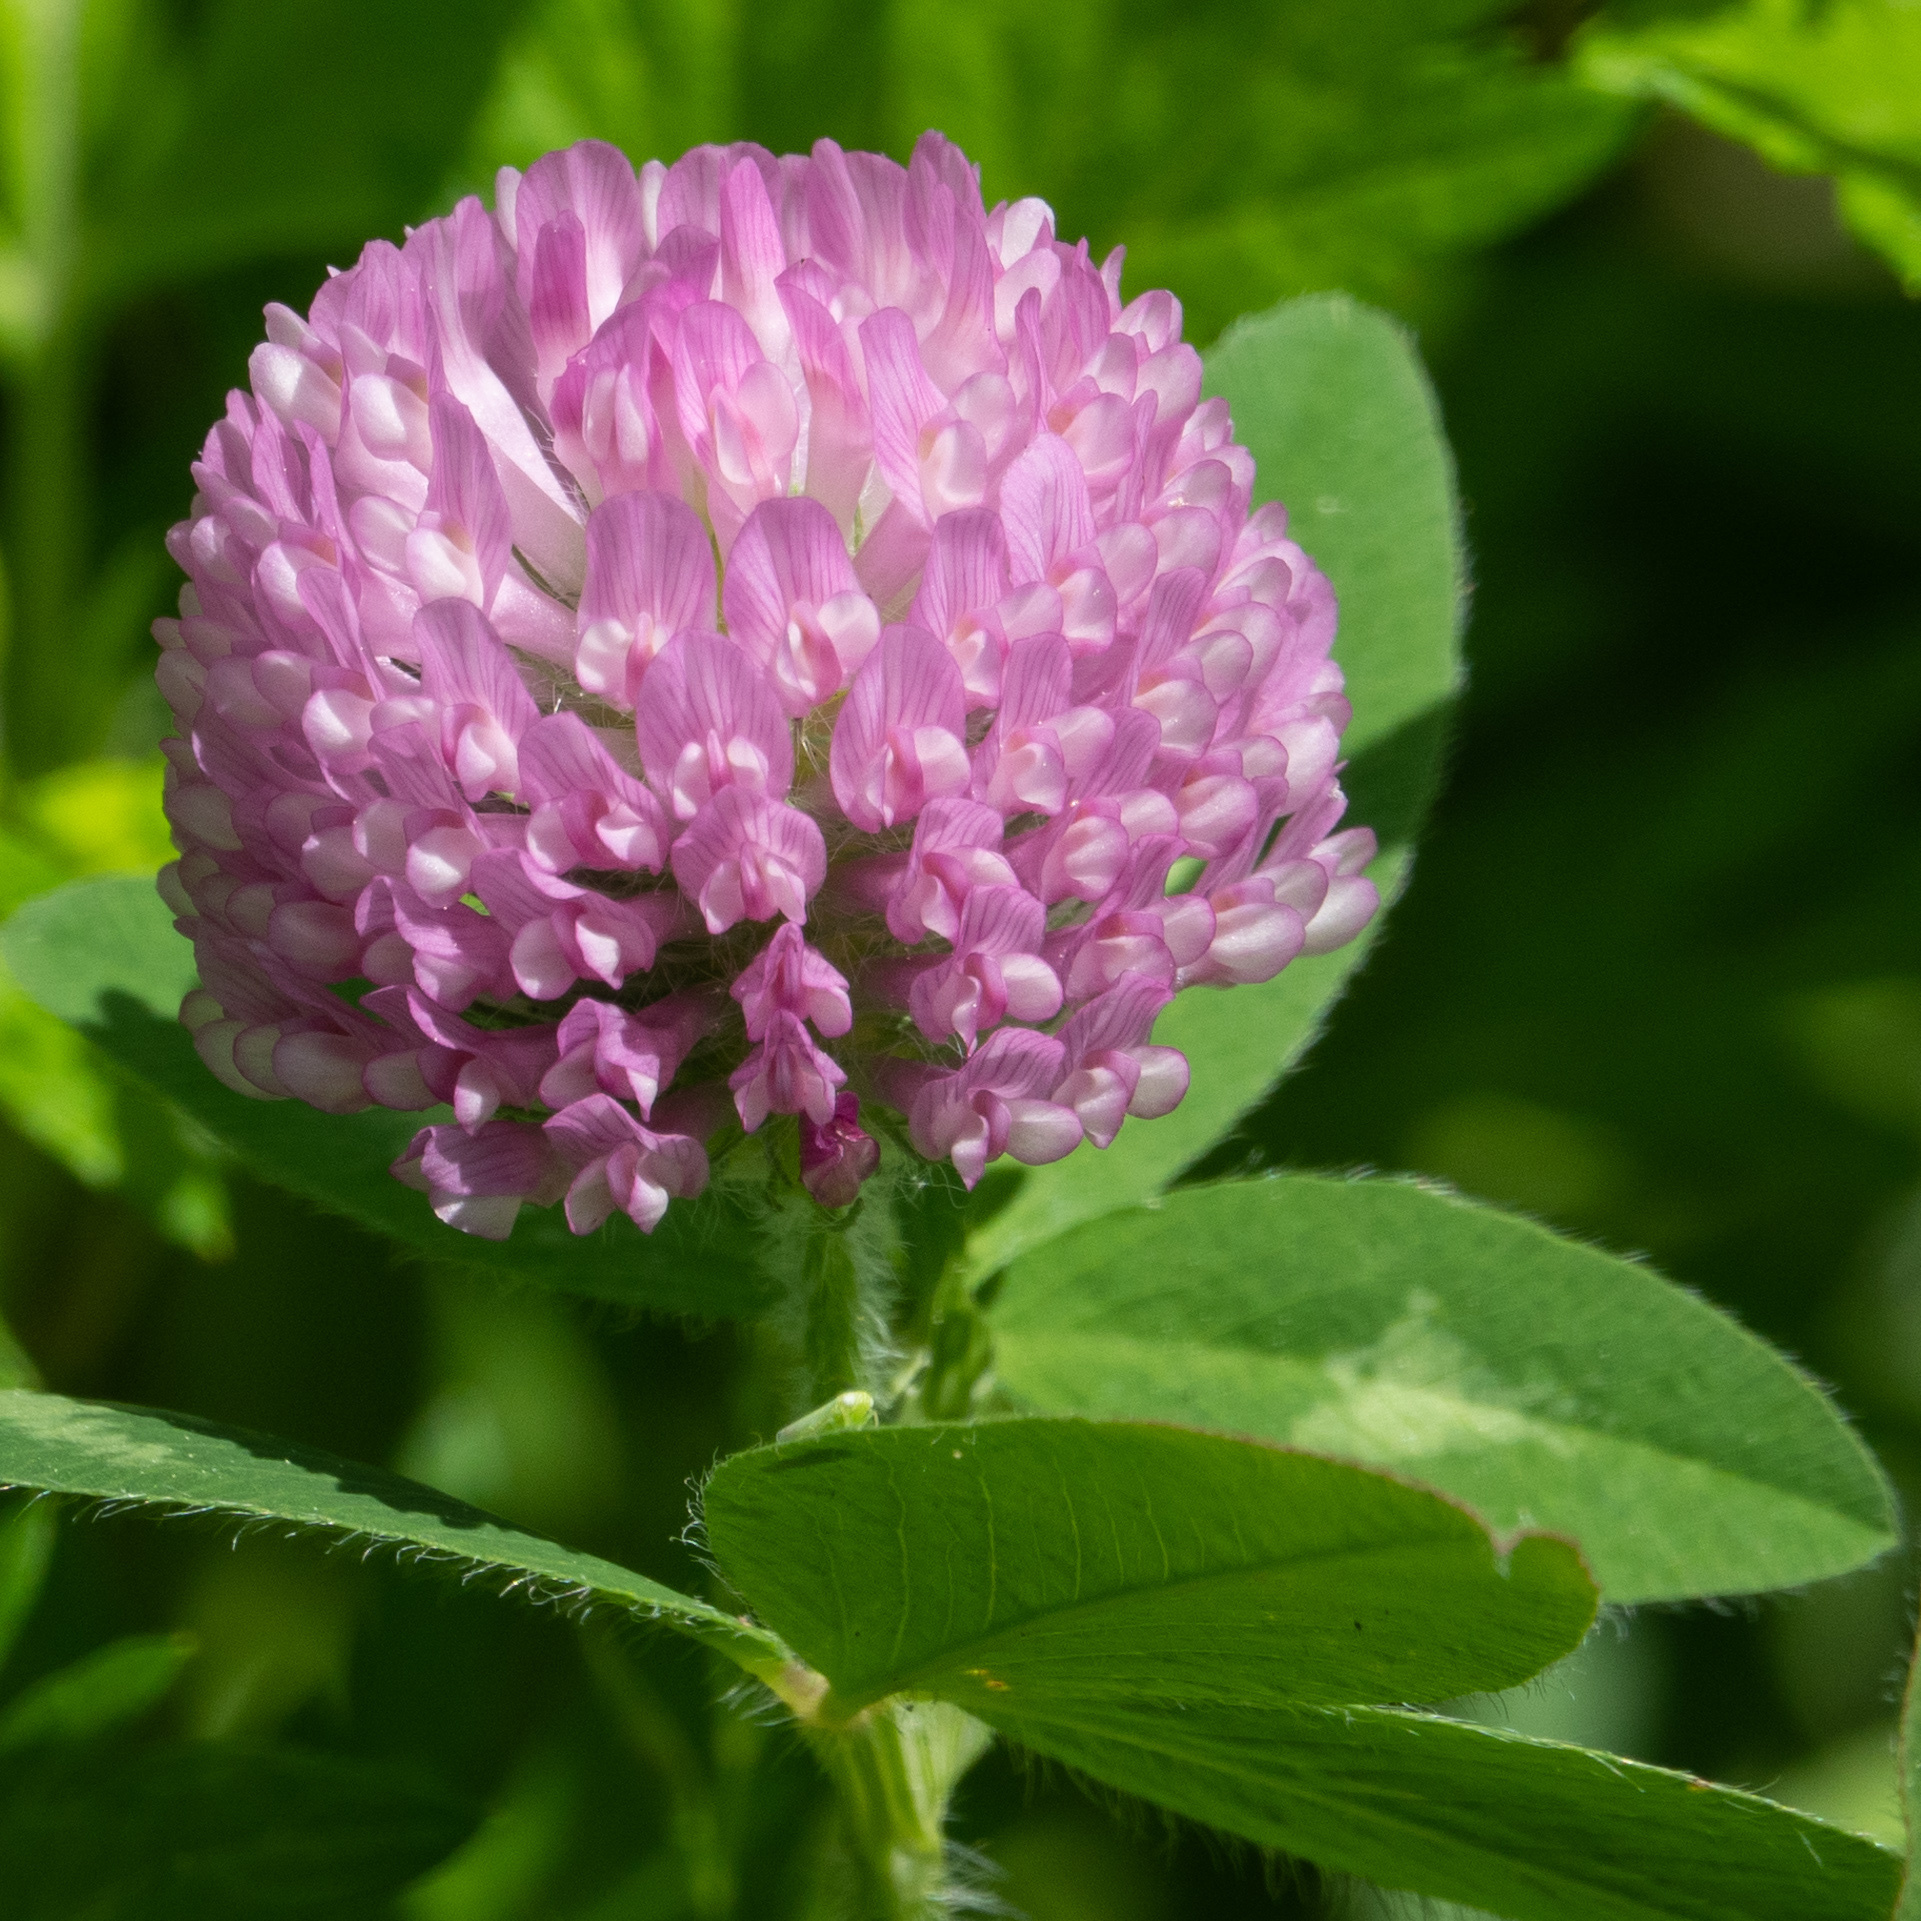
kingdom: Plantae
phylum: Tracheophyta
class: Magnoliopsida
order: Fabales
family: Fabaceae
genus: Trifolium
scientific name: Trifolium pratense
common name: Red clover
